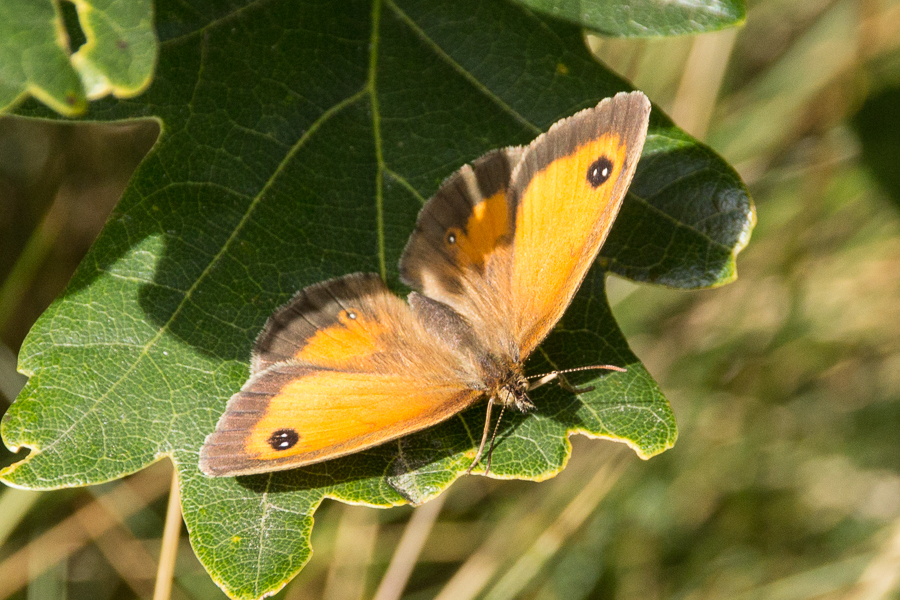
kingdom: Animalia
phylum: Arthropoda
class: Insecta
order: Lepidoptera
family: Nymphalidae
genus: Pyronia
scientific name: Pyronia tithonus
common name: Gatekeeper
